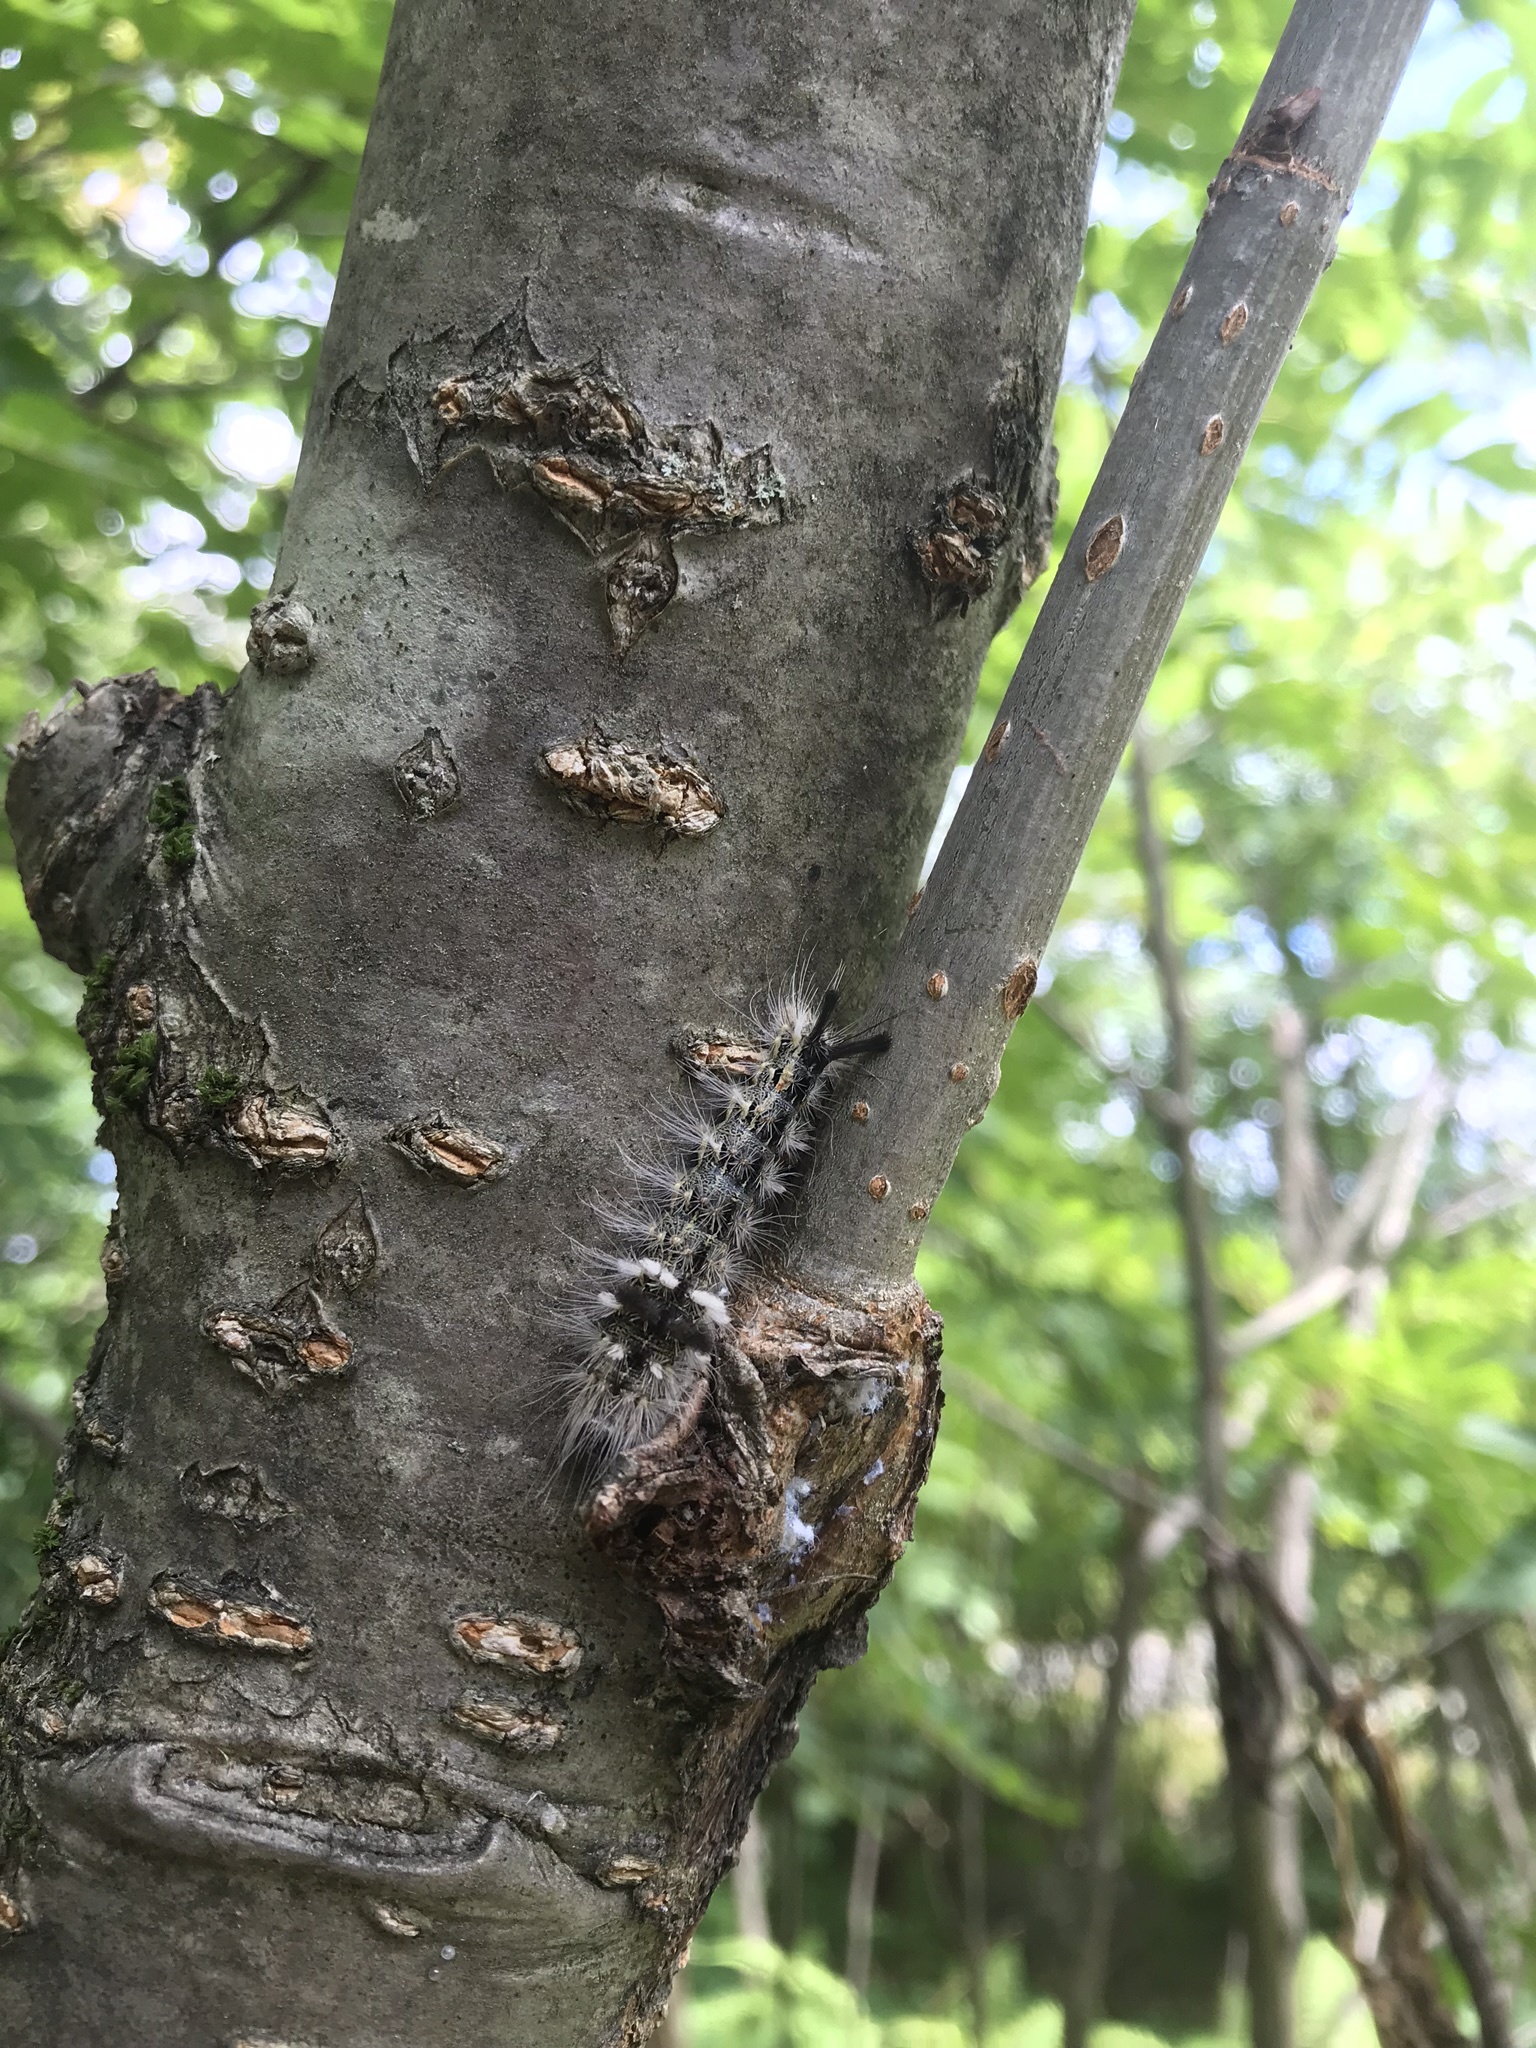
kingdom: Animalia
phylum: Arthropoda
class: Insecta
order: Lepidoptera
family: Noctuidae
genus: Acronicta
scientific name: Acronicta impleta
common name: Powdered dagger
